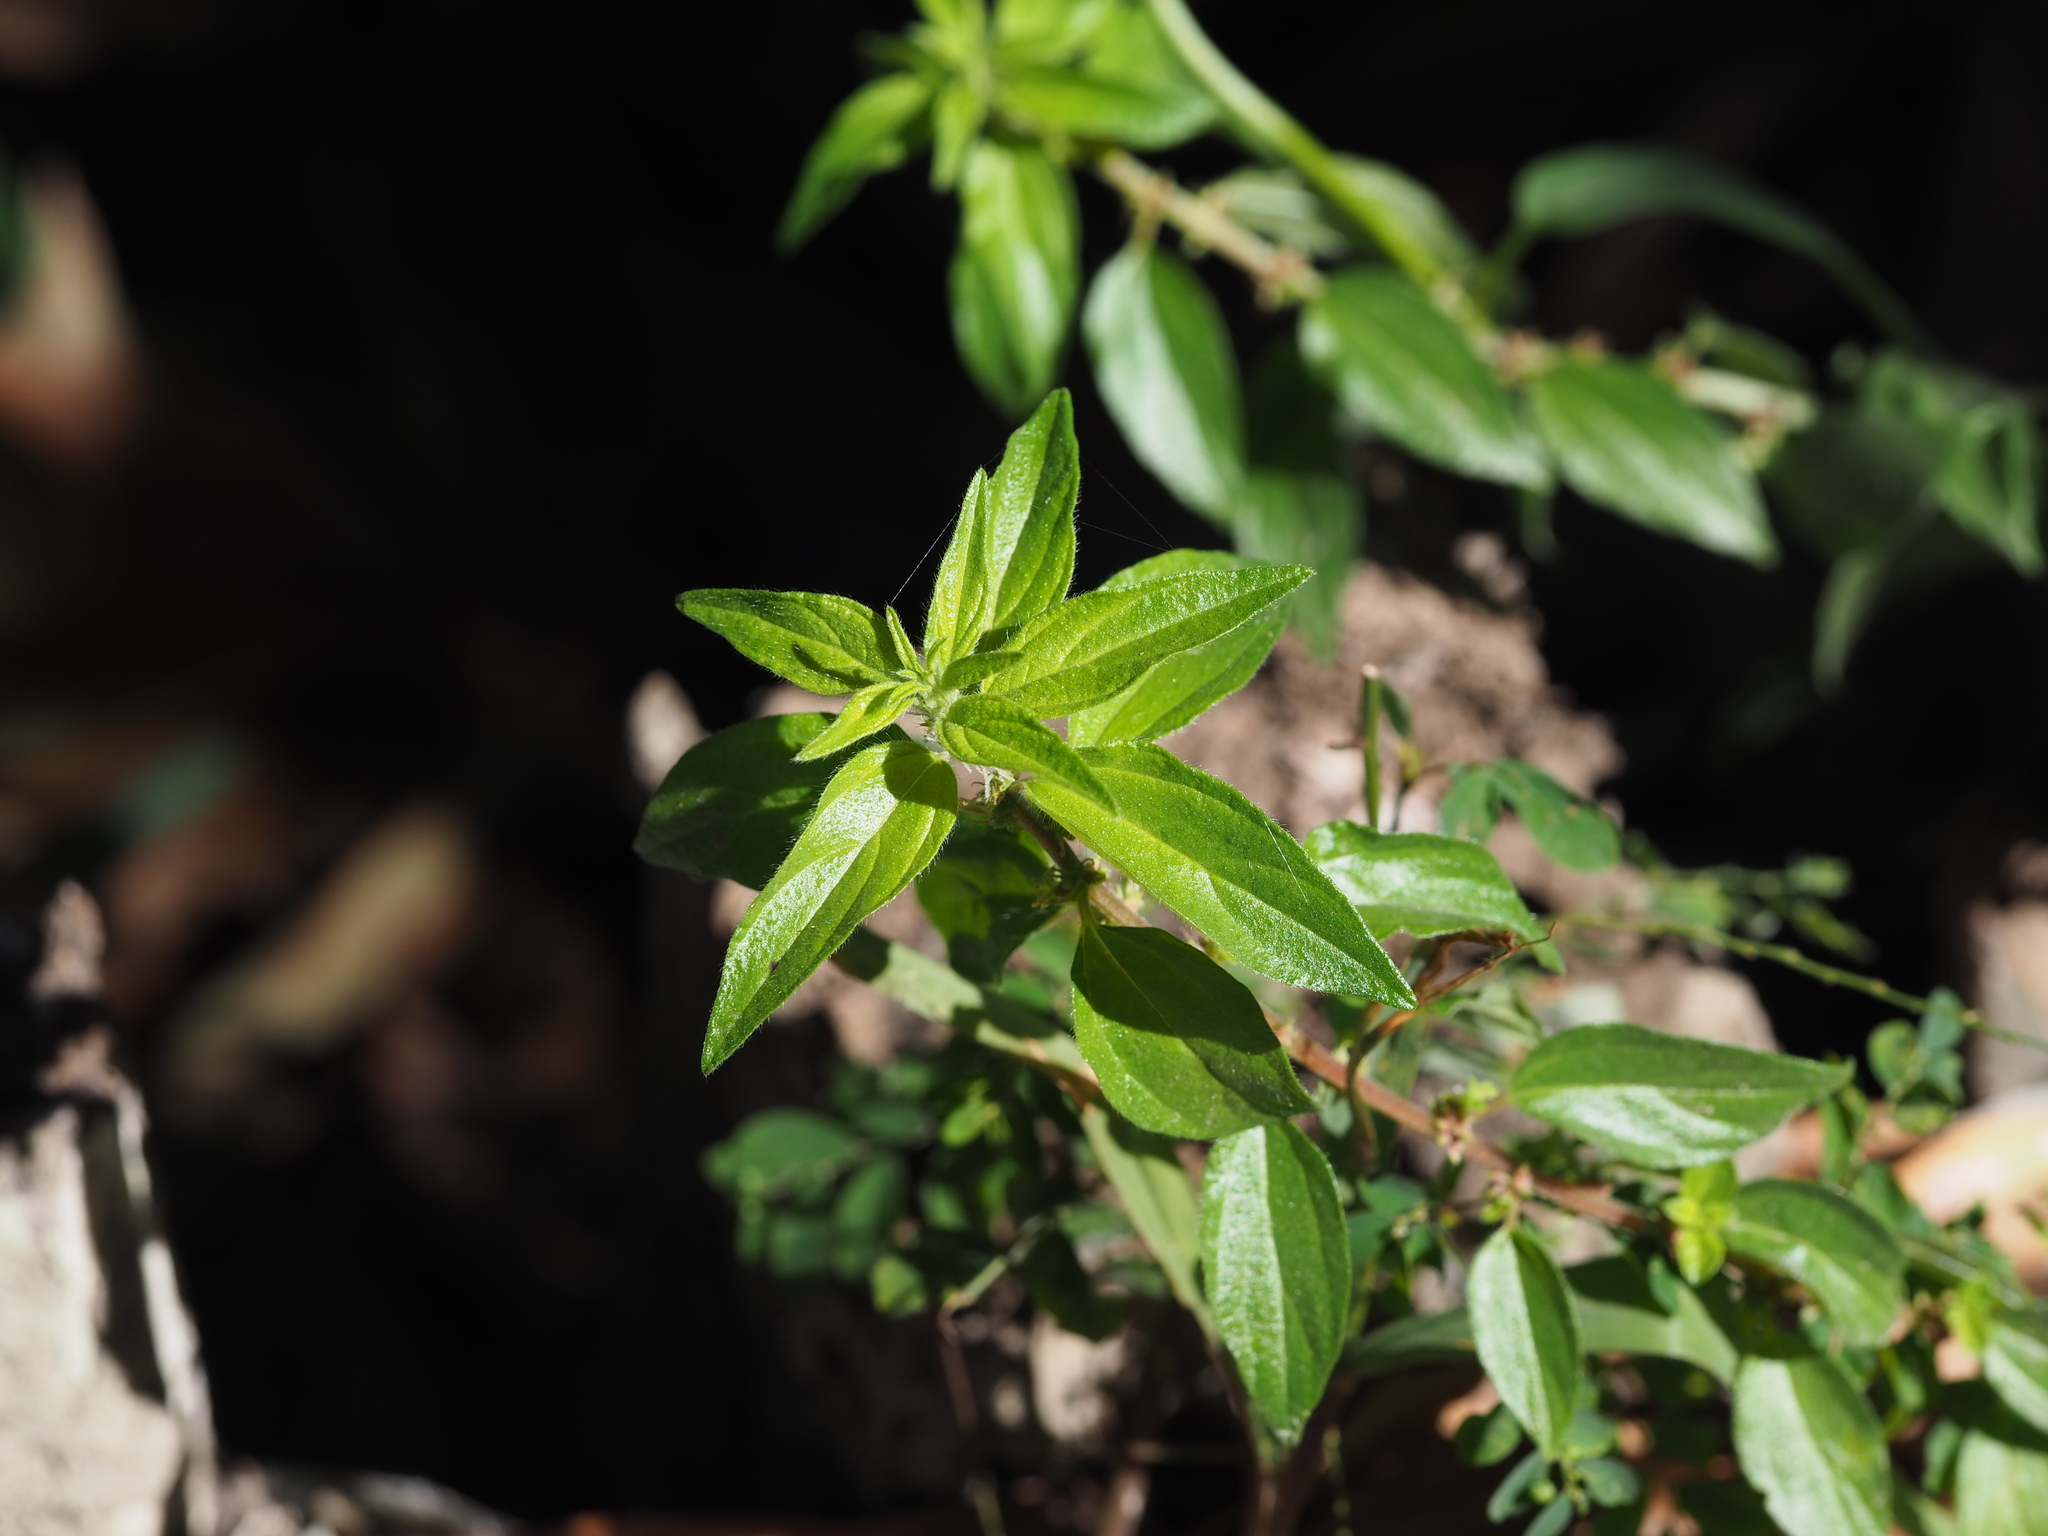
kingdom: Plantae
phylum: Tracheophyta
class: Magnoliopsida
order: Rosales
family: Urticaceae
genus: Pouzolzia
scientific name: Pouzolzia zeylanica
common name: Graceful pouzolzsbush
